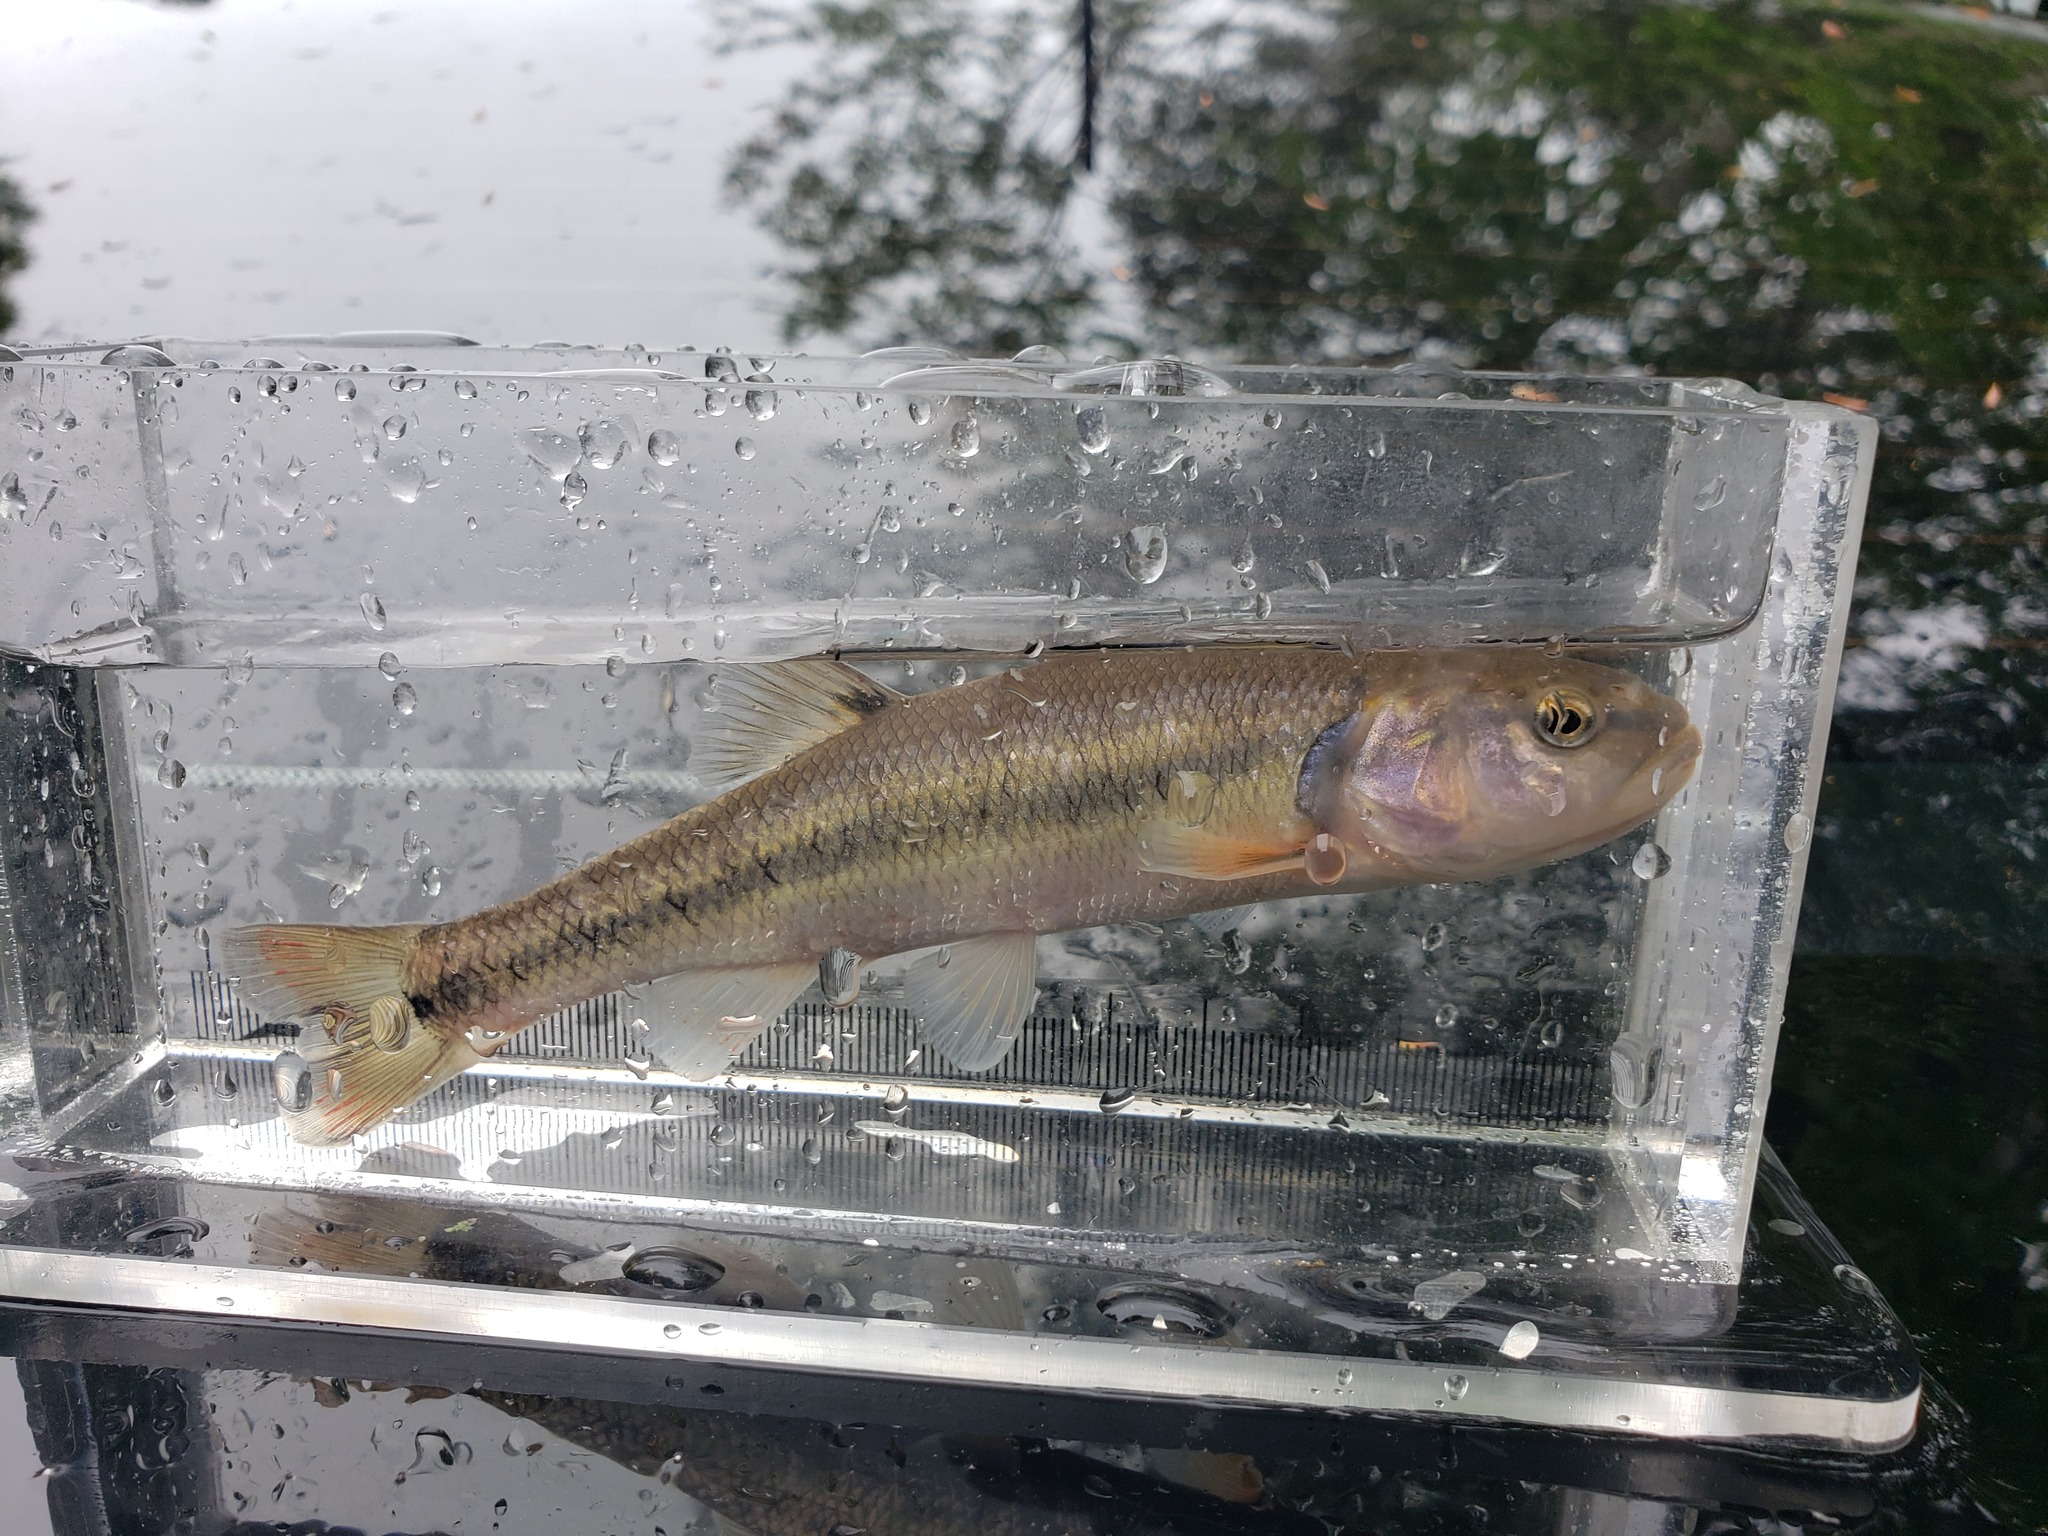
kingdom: Animalia
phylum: Chordata
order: Cypriniformes
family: Cyprinidae
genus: Semotilus
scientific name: Semotilus atromaculatus
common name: Creek chub
